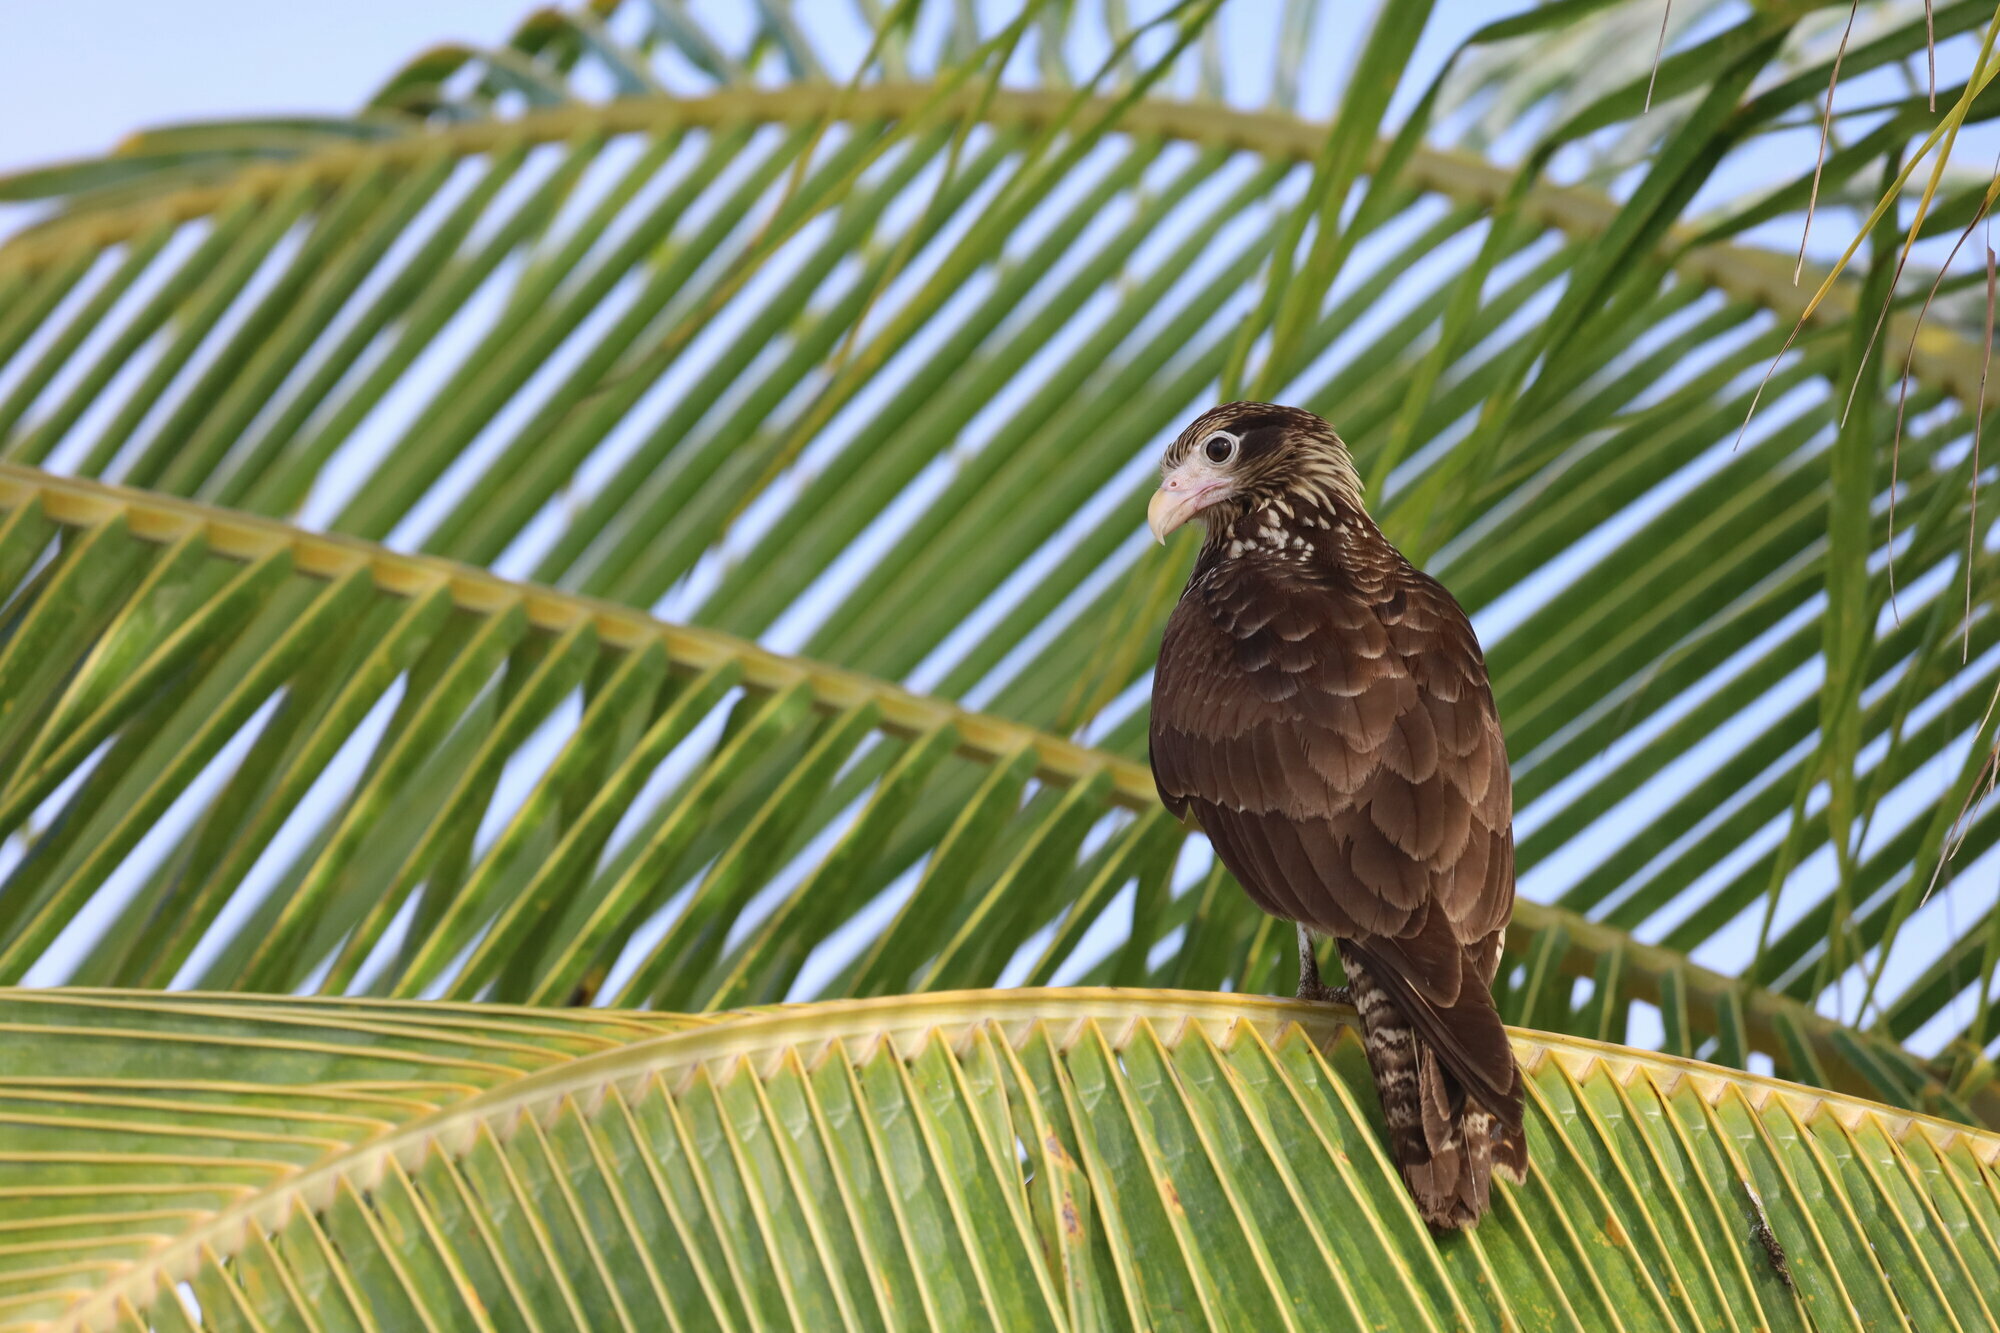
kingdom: Animalia
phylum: Chordata
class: Aves
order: Falconiformes
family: Falconidae
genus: Daptrius
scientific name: Daptrius
